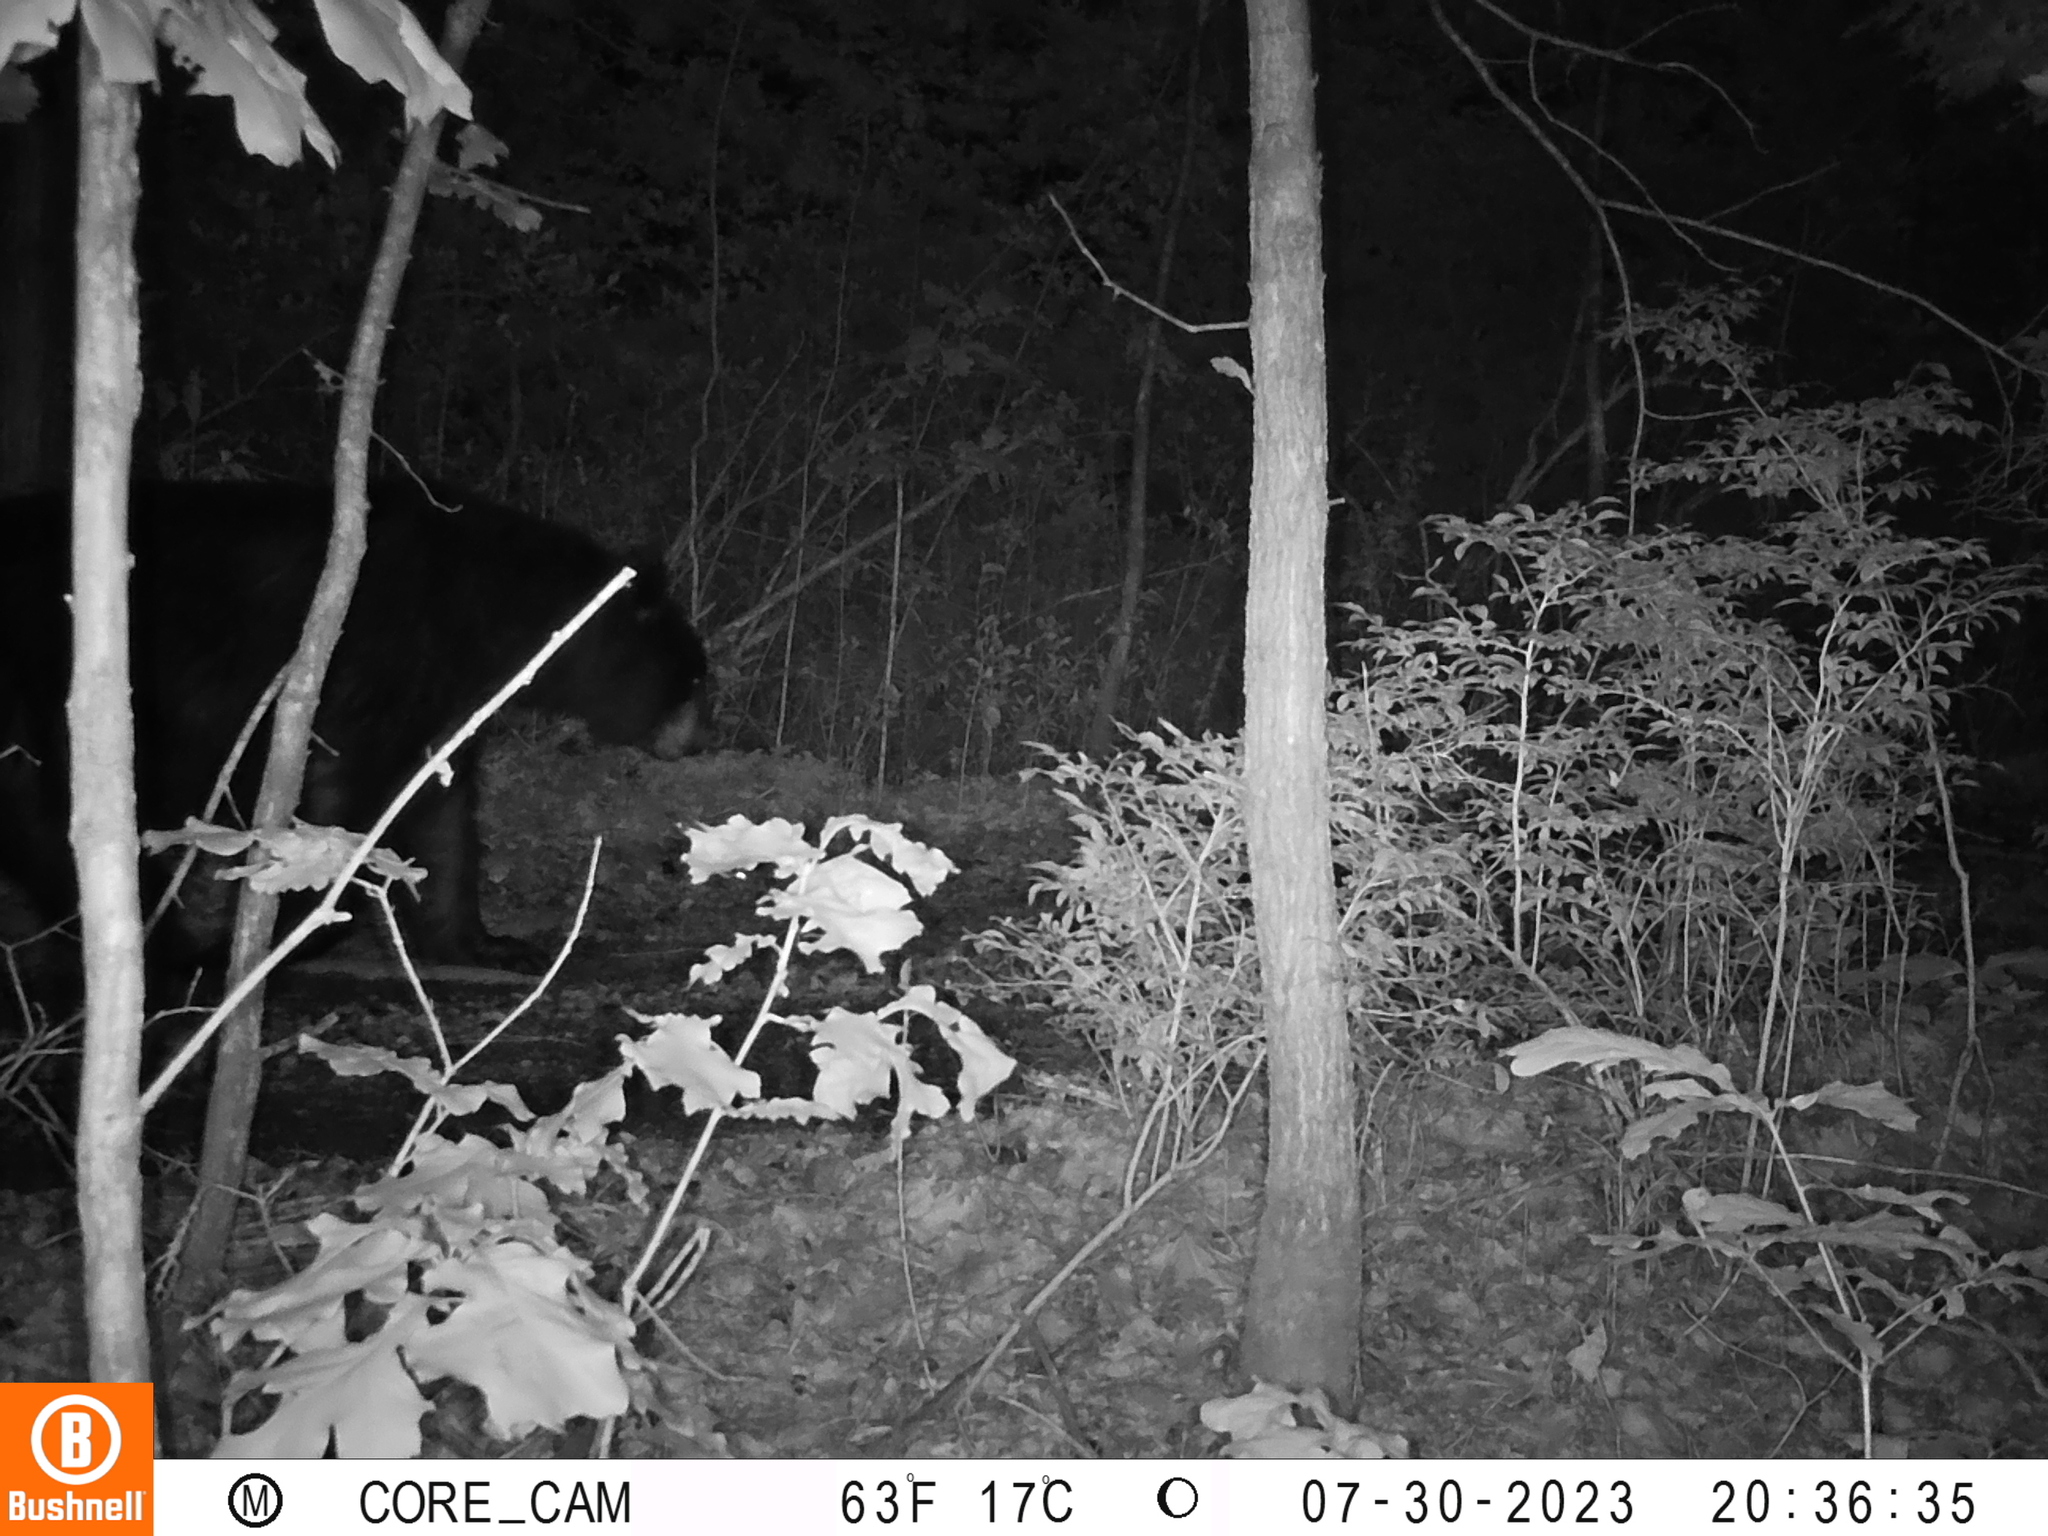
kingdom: Animalia
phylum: Chordata
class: Mammalia
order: Carnivora
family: Ursidae
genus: Ursus
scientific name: Ursus americanus
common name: American black bear
